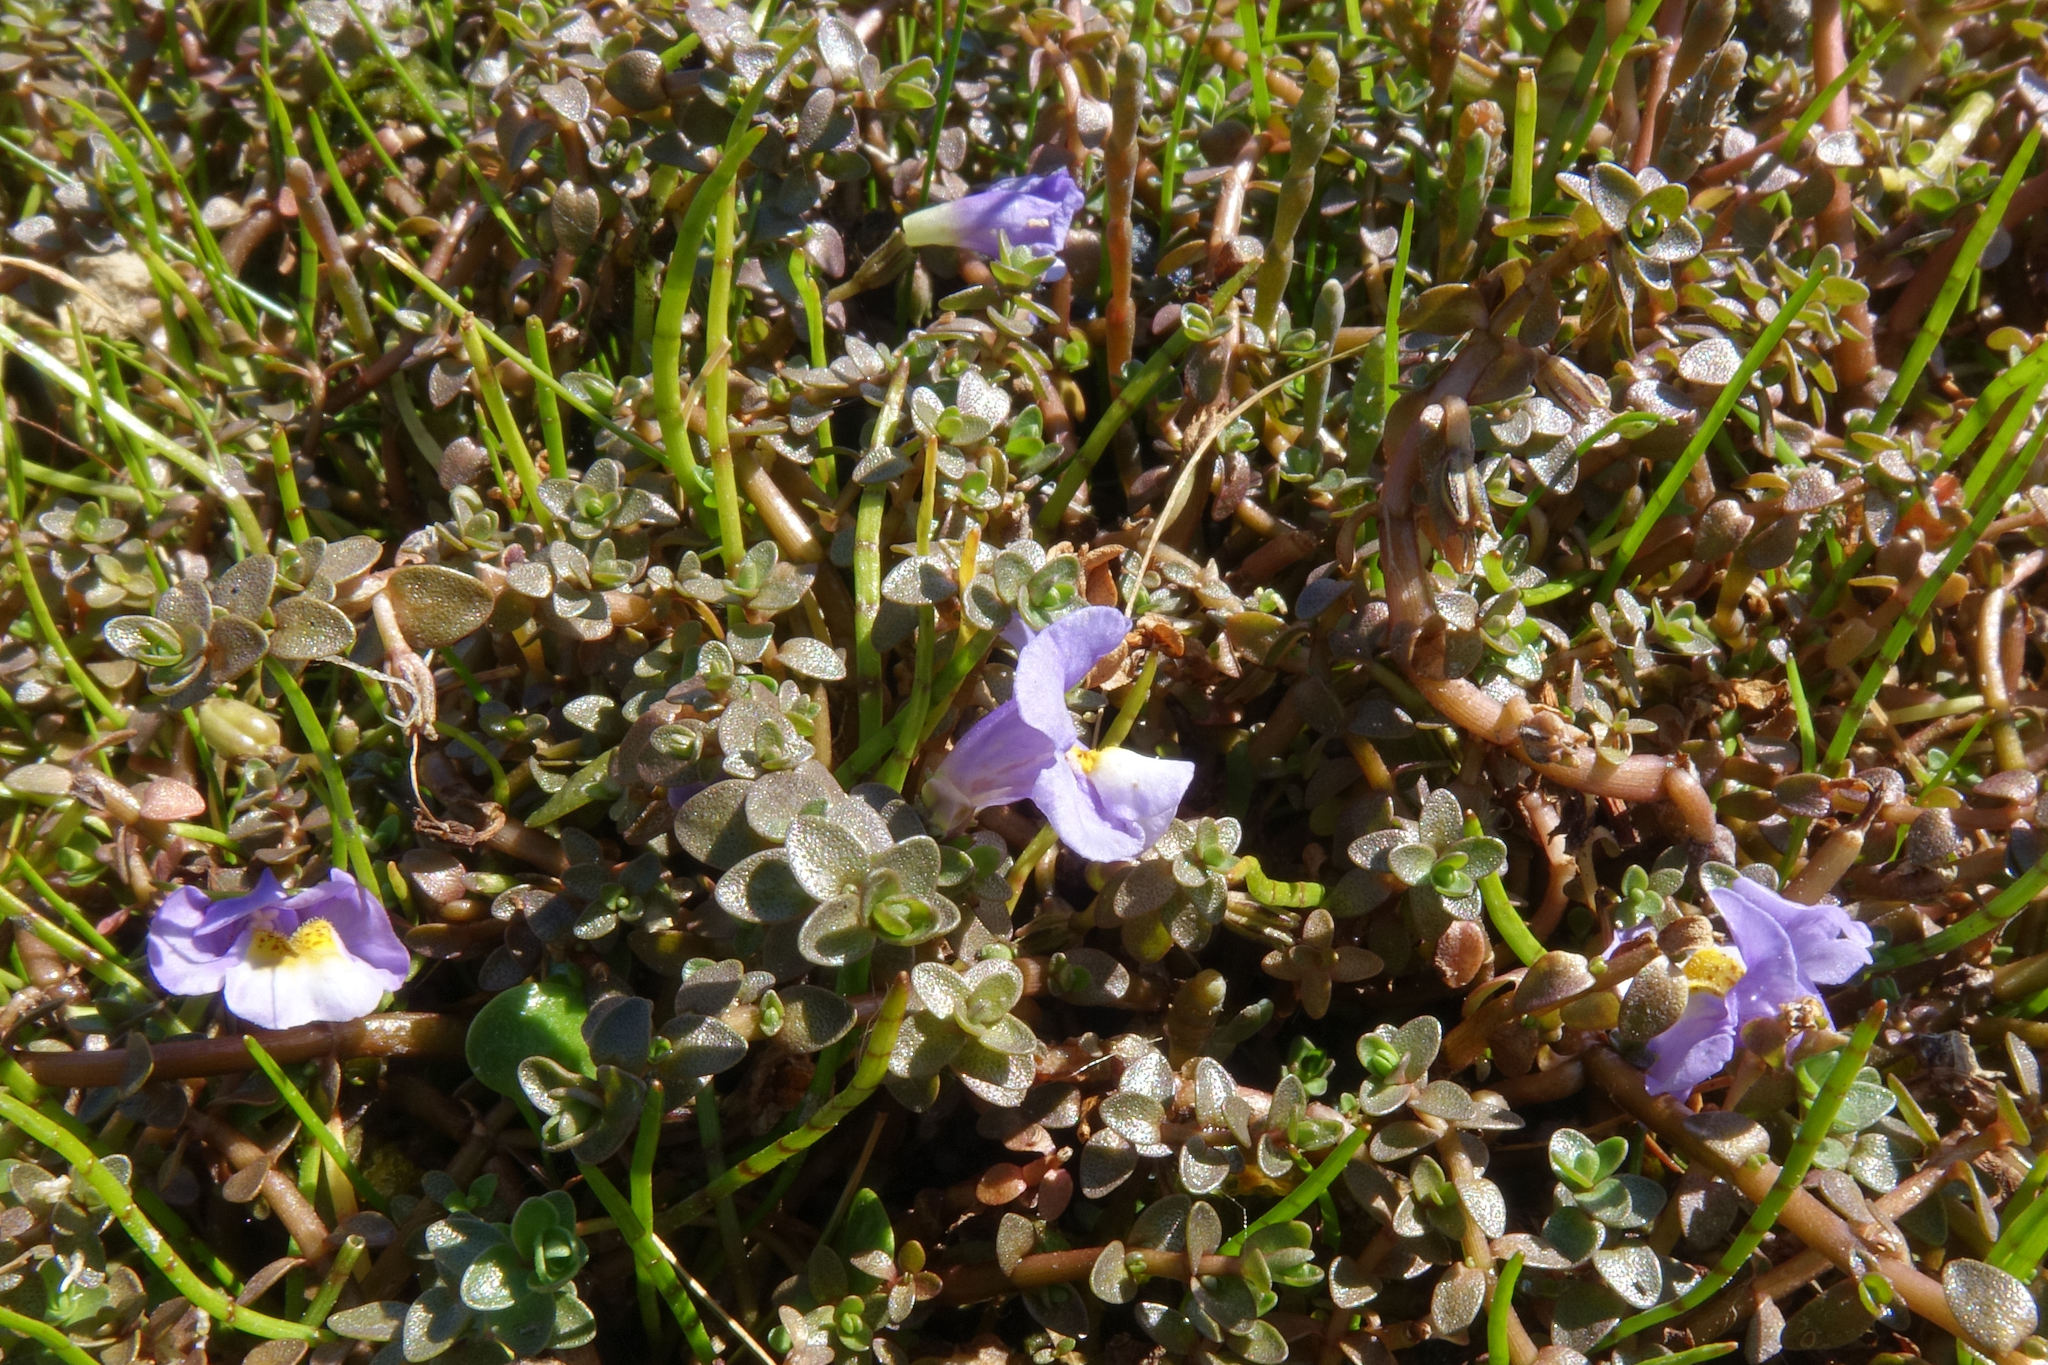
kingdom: Plantae
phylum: Tracheophyta
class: Magnoliopsida
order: Lamiales
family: Phrymaceae
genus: Thyridia
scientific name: Thyridia repens
